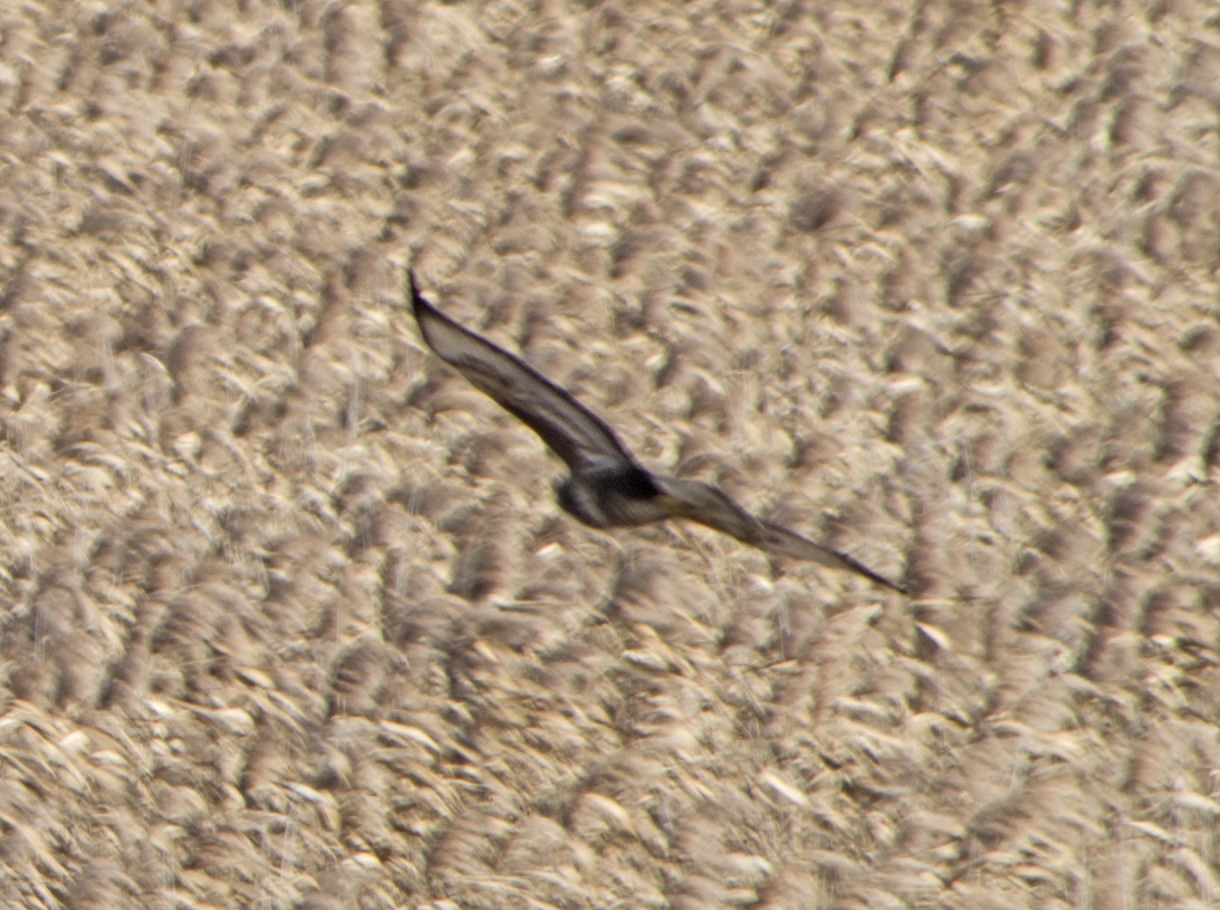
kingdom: Animalia
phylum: Chordata
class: Aves
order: Accipitriformes
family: Accipitridae
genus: Buteo
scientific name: Buteo buteo
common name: Common buzzard
